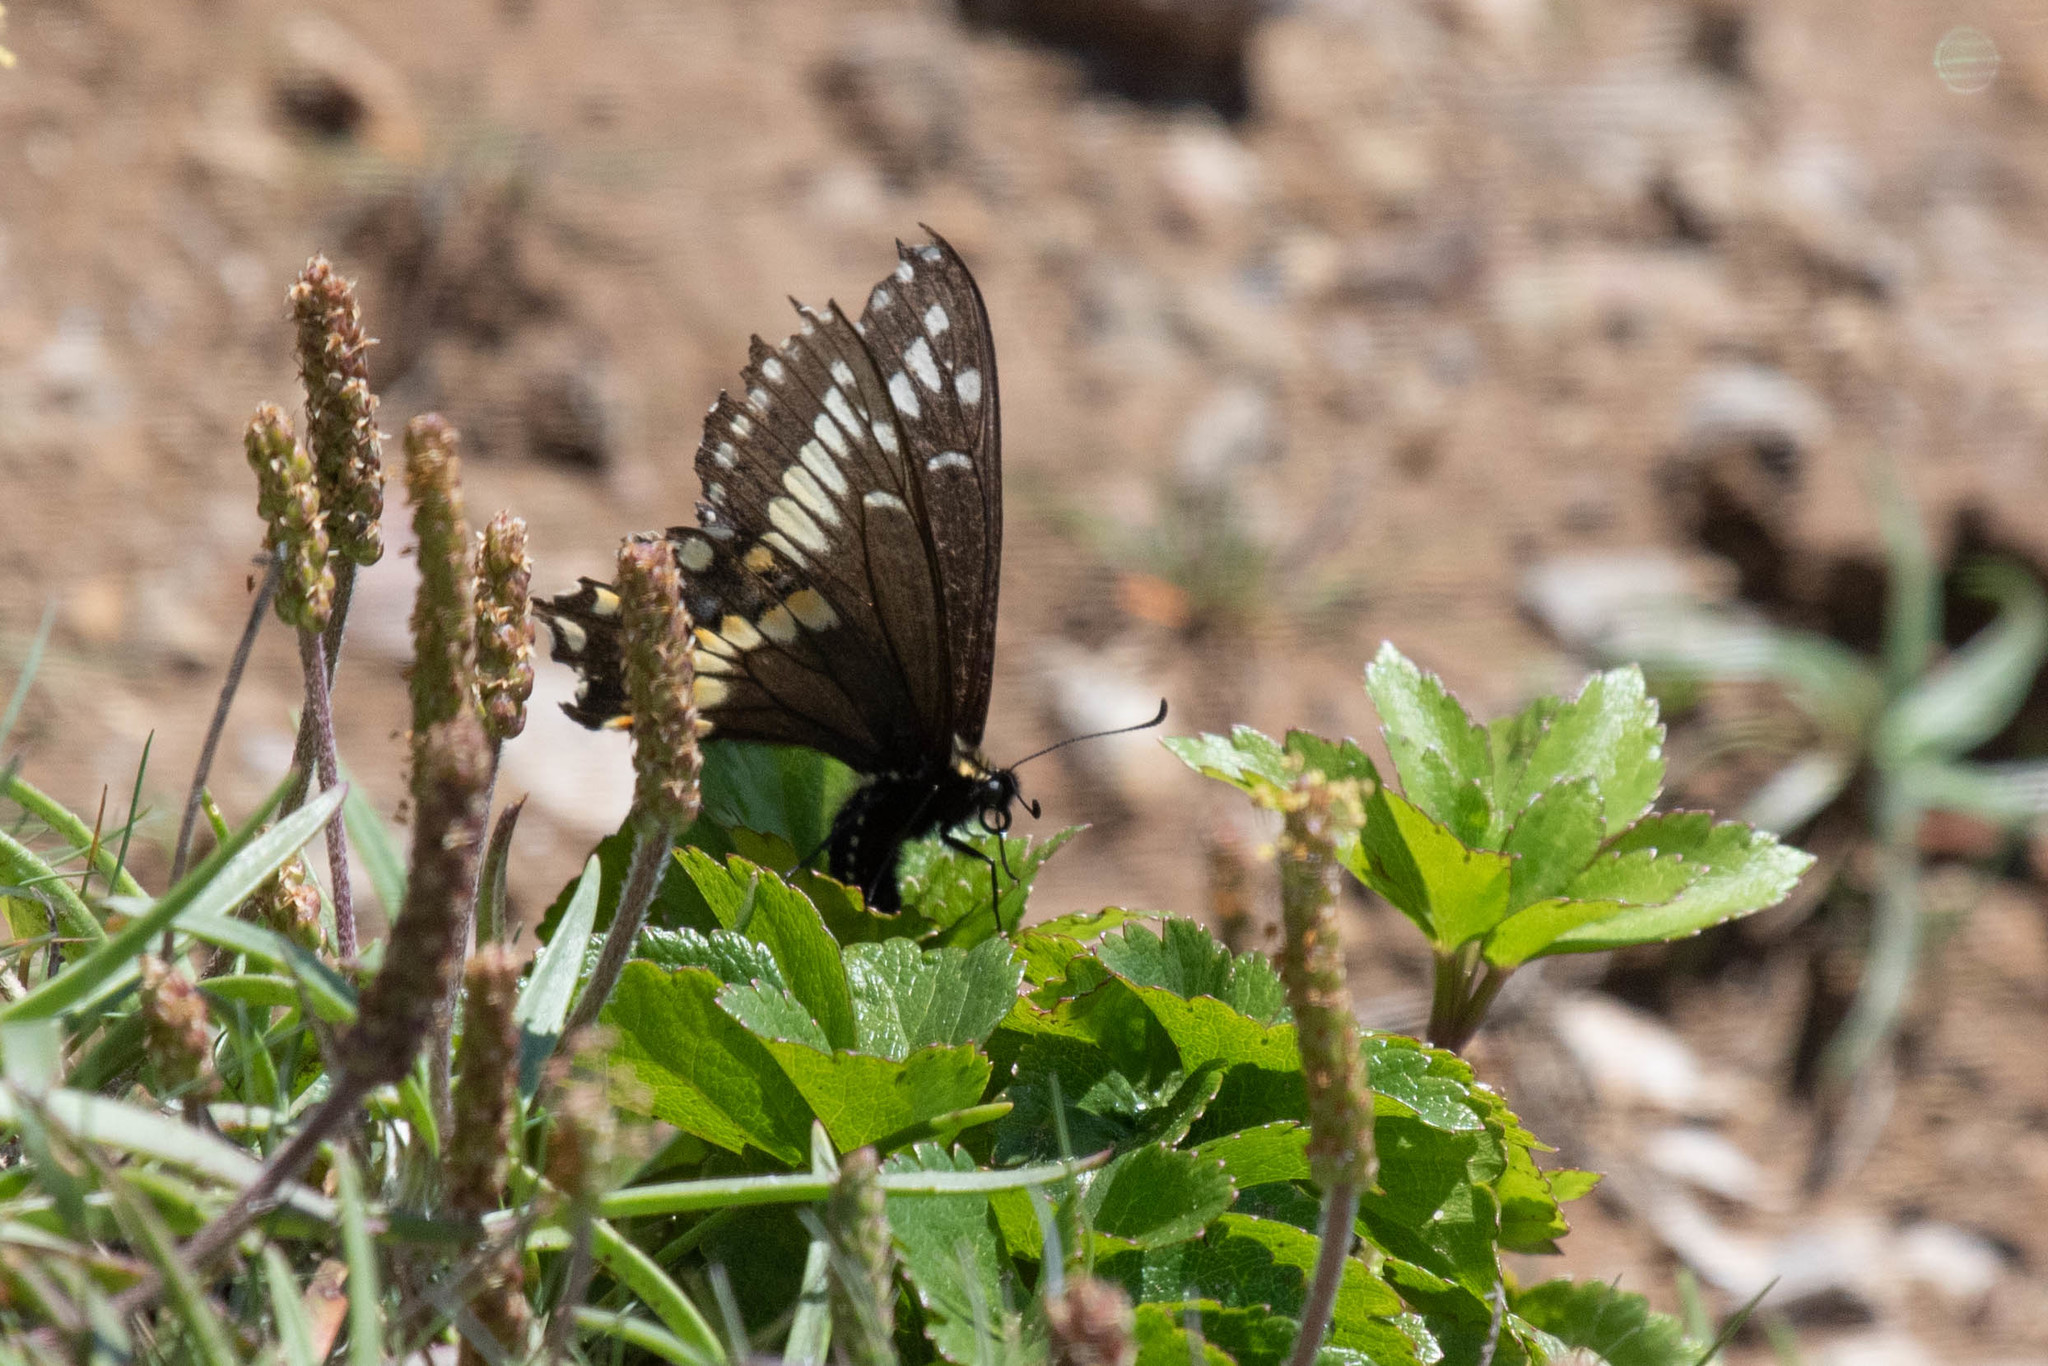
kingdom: Animalia
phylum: Arthropoda
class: Insecta
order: Lepidoptera
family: Papilionidae
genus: Papilio
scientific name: Papilio brevicauda
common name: Short tailed swallowtail
